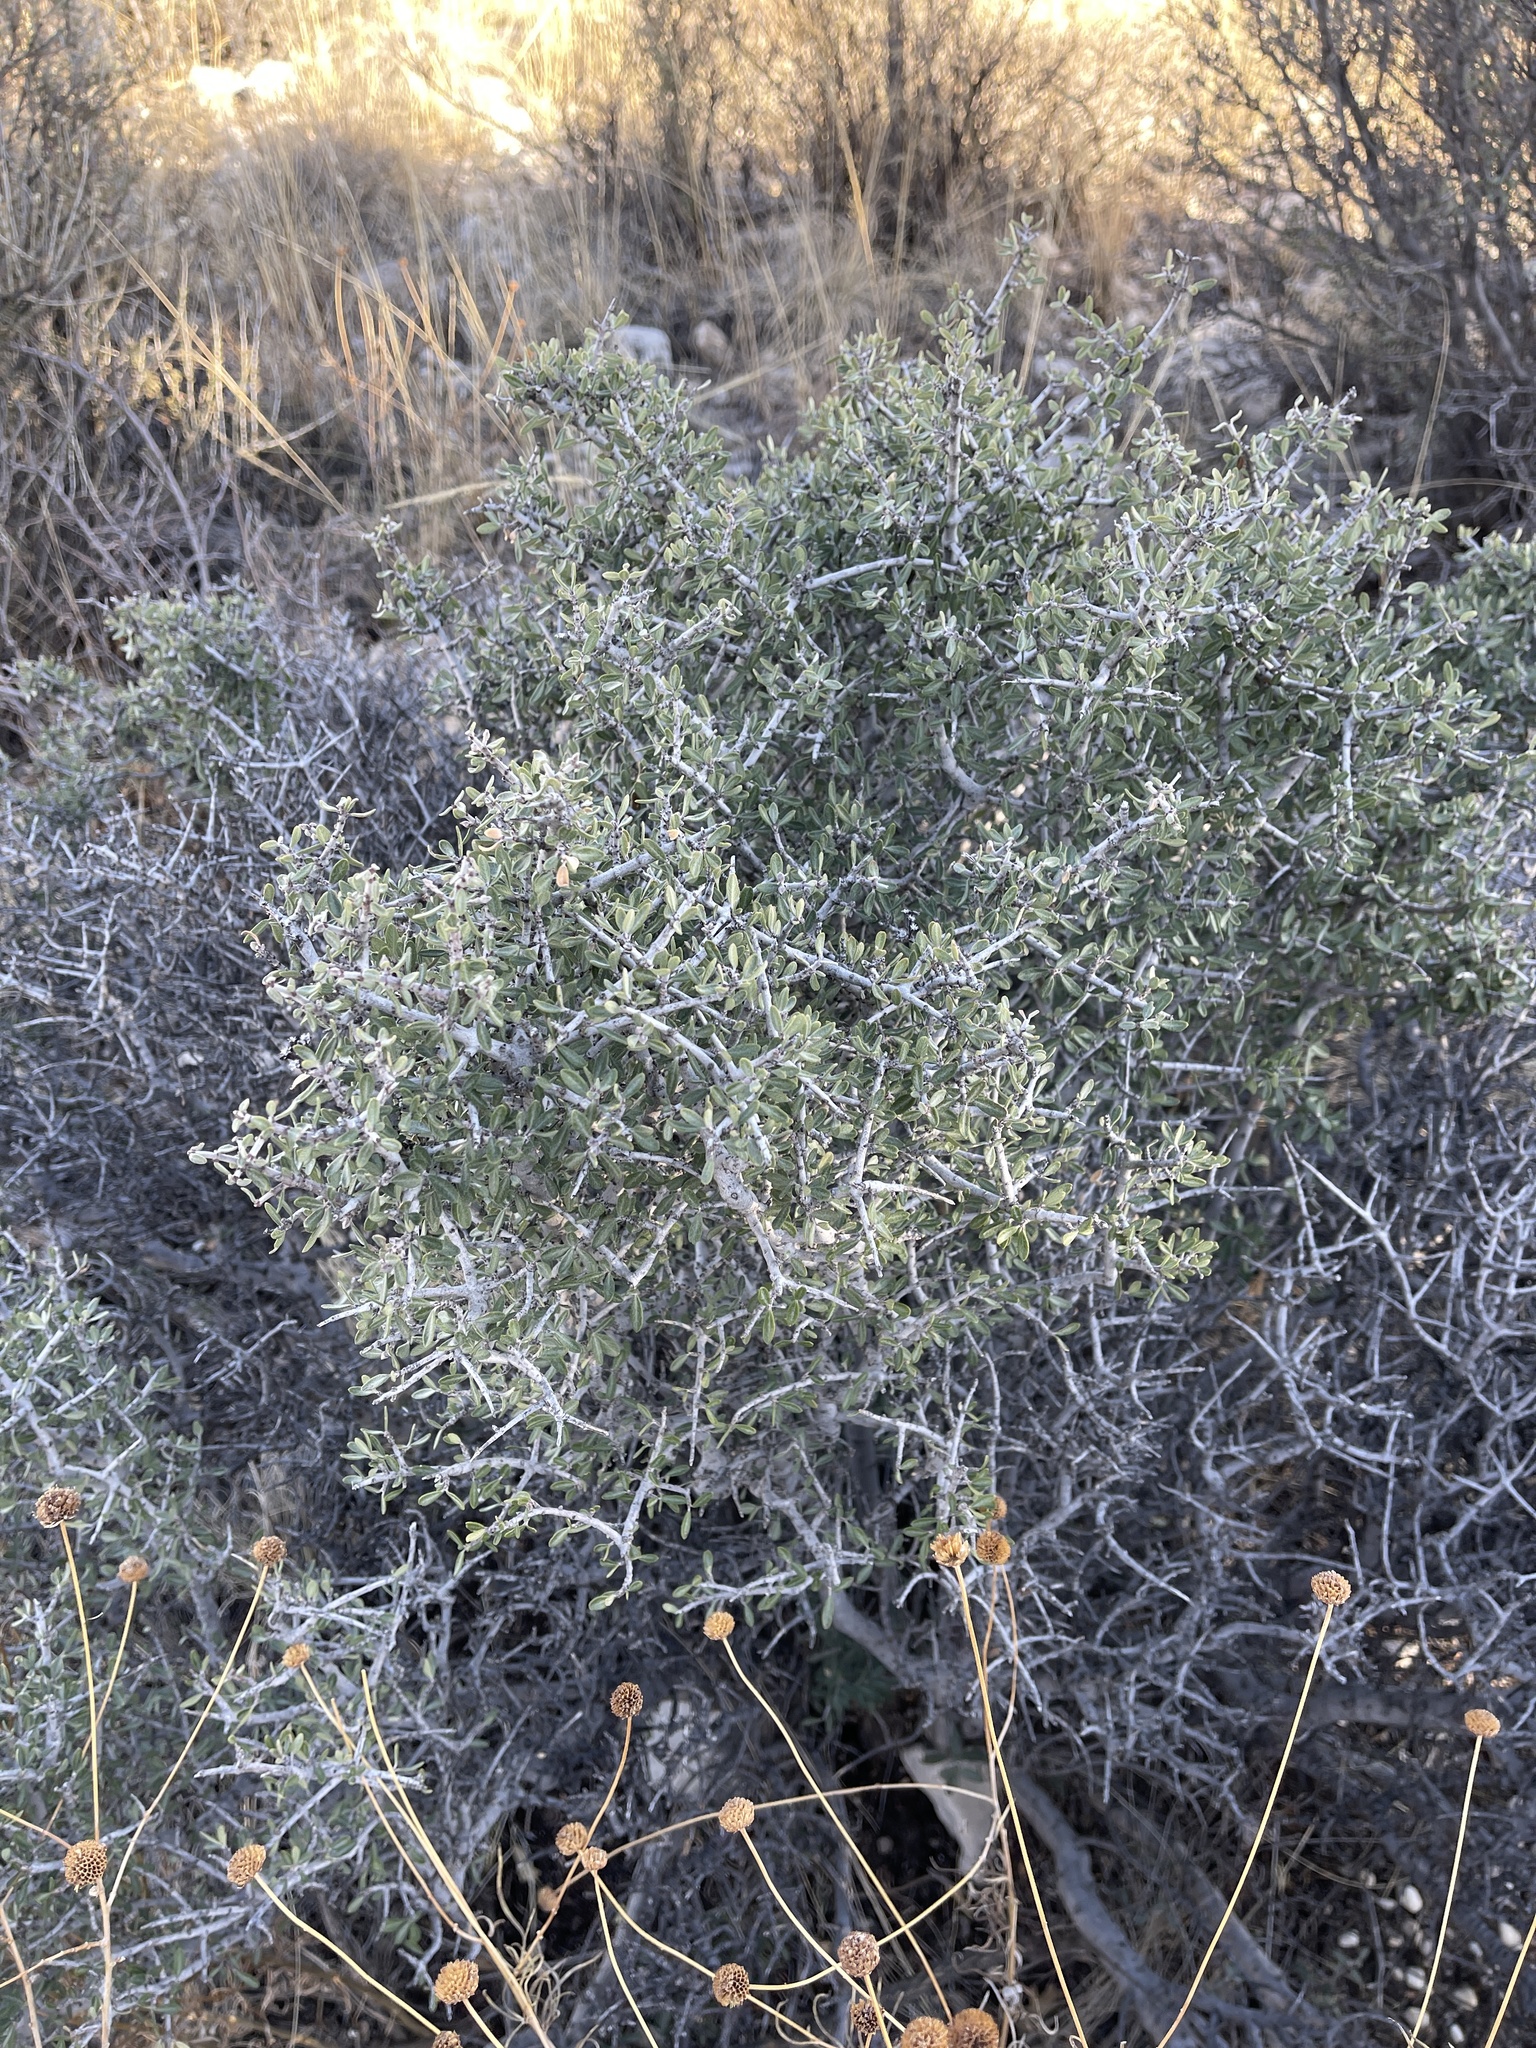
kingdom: Plantae
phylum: Tracheophyta
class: Magnoliopsida
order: Rosales
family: Rhamnaceae
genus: Ceanothus
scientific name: Ceanothus pauciflorus
